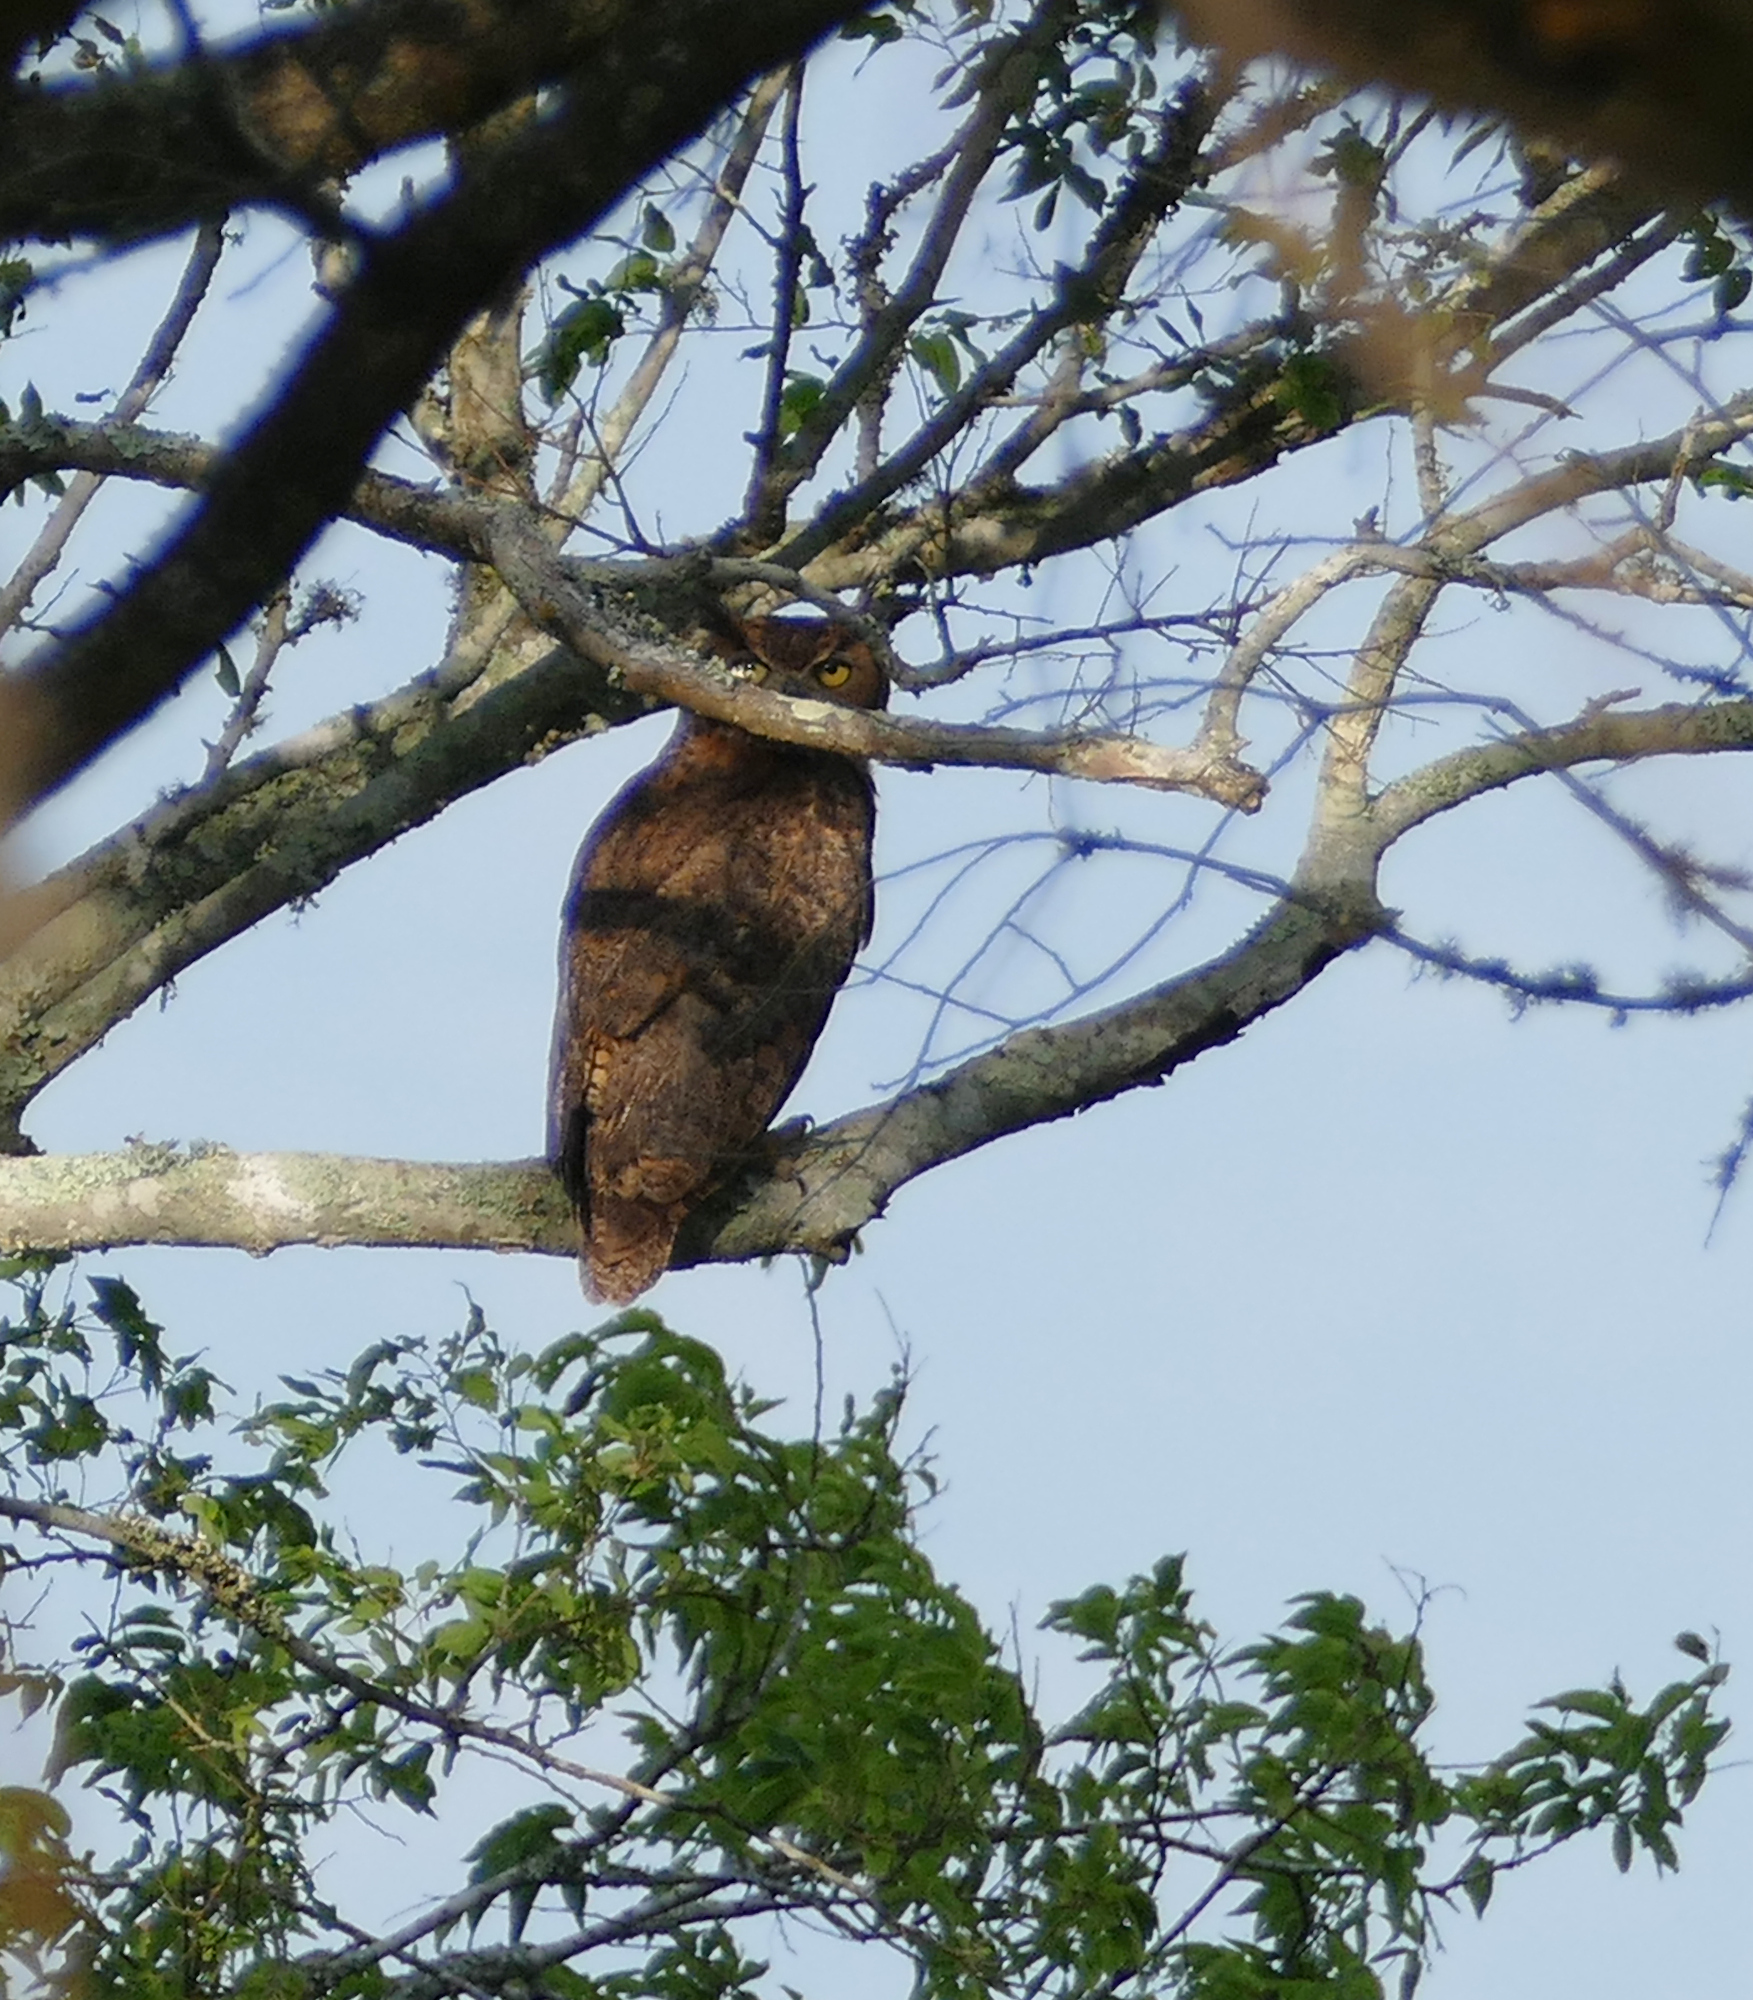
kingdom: Animalia
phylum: Chordata
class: Aves
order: Strigiformes
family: Strigidae
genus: Bubo
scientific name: Bubo virginianus
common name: Great horned owl
